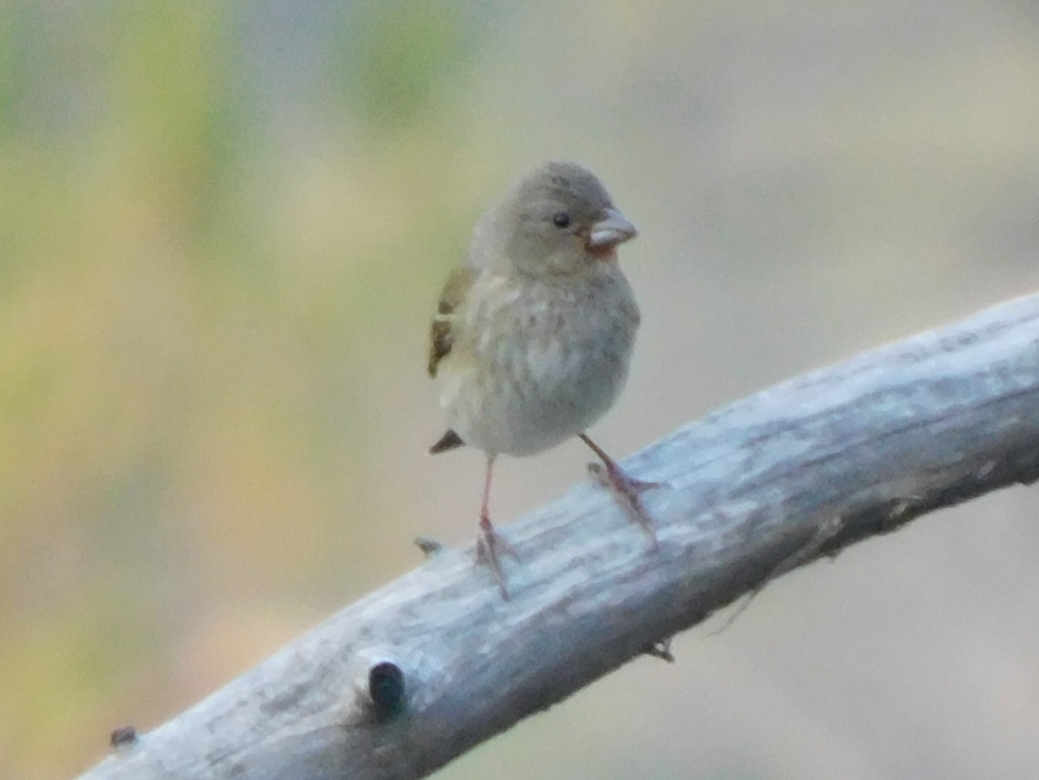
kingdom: Animalia
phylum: Chordata
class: Aves
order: Passeriformes
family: Fringillidae
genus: Carpodacus
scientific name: Carpodacus erythrinus
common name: Common rosefinch
